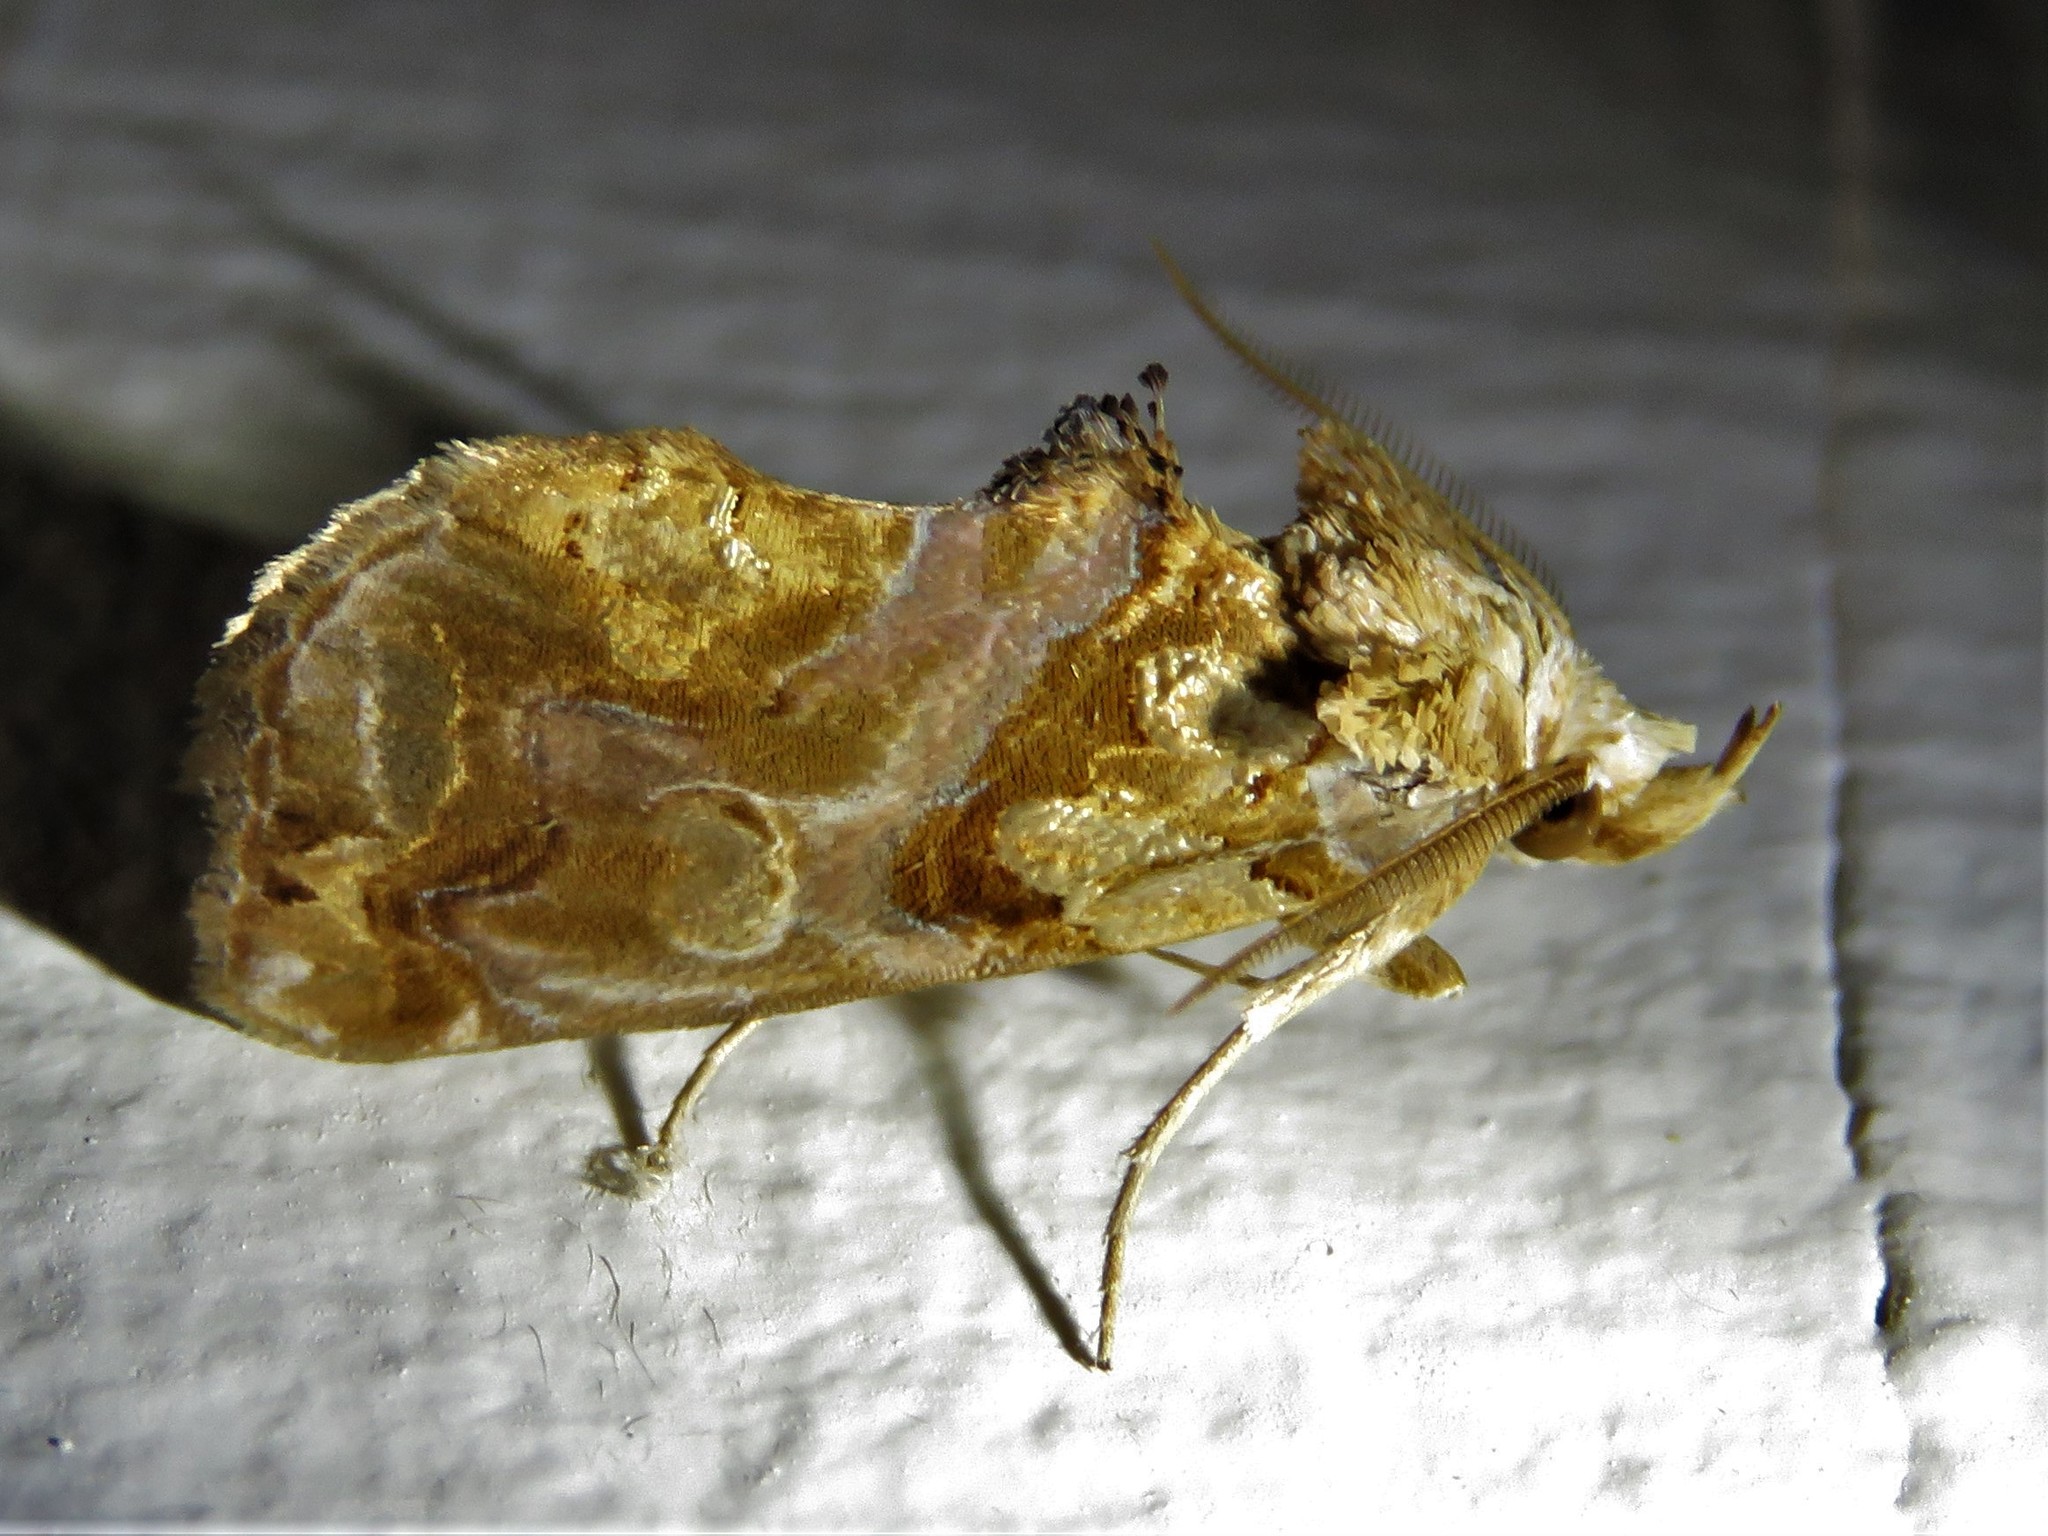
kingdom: Animalia
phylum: Arthropoda
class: Insecta
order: Lepidoptera
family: Erebidae
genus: Plusiodonta
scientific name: Plusiodonta compressipalpis
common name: Moonseed moth
